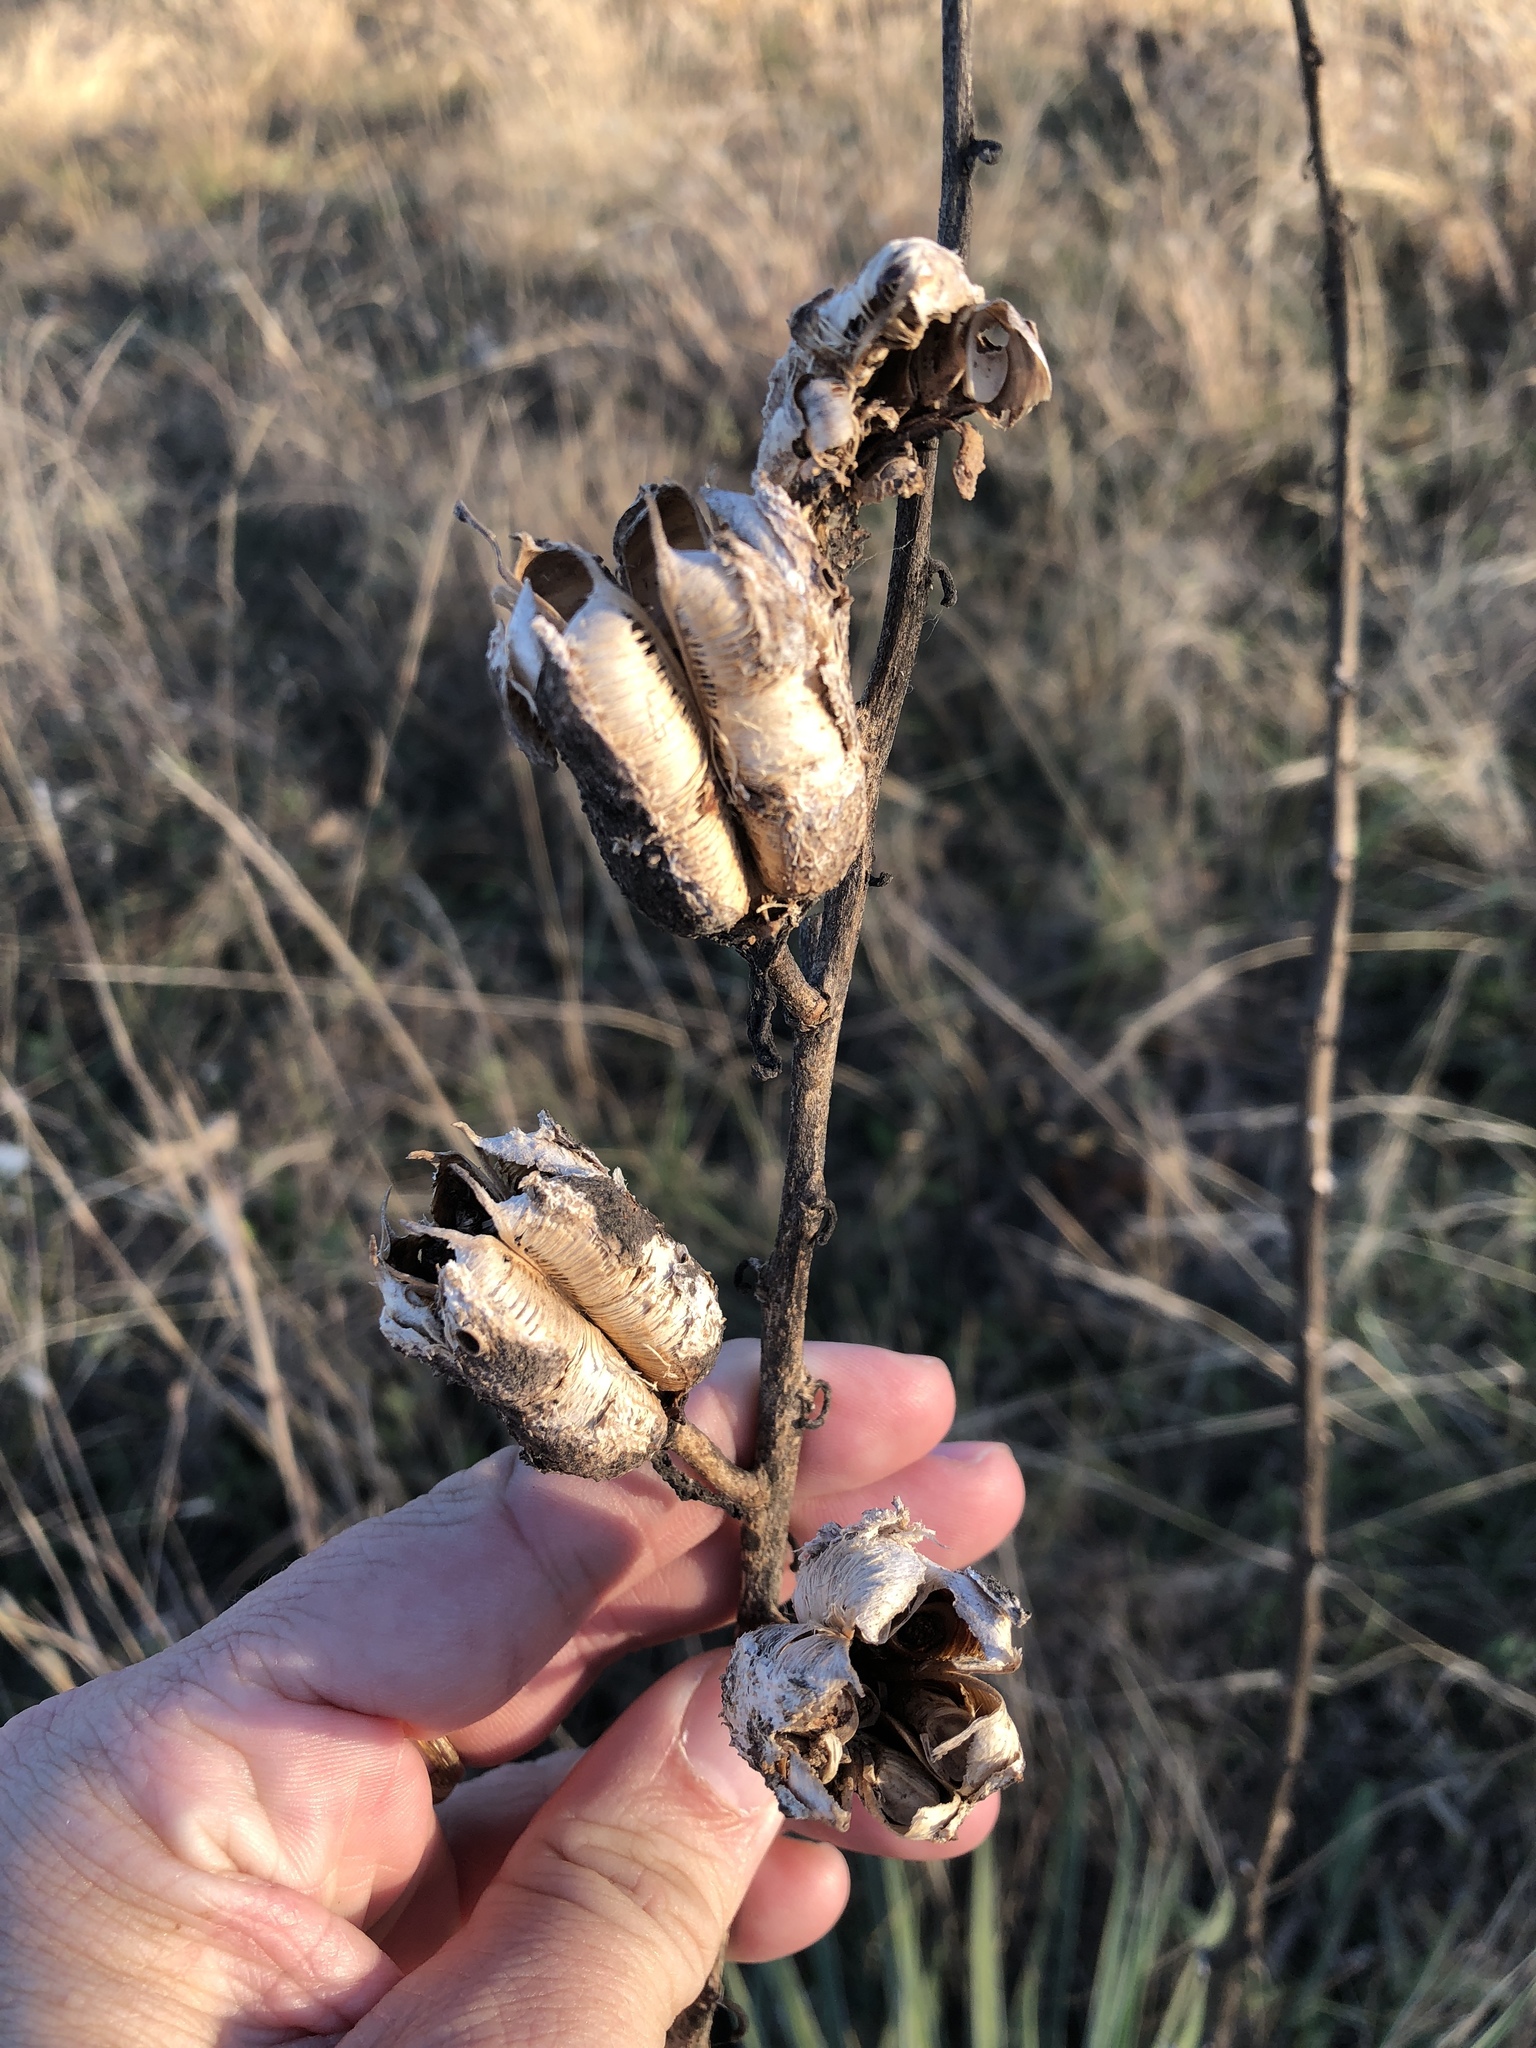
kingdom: Plantae
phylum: Tracheophyta
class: Liliopsida
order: Asparagales
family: Asparagaceae
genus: Yucca
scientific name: Yucca arkansana
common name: Arkansas yucca
